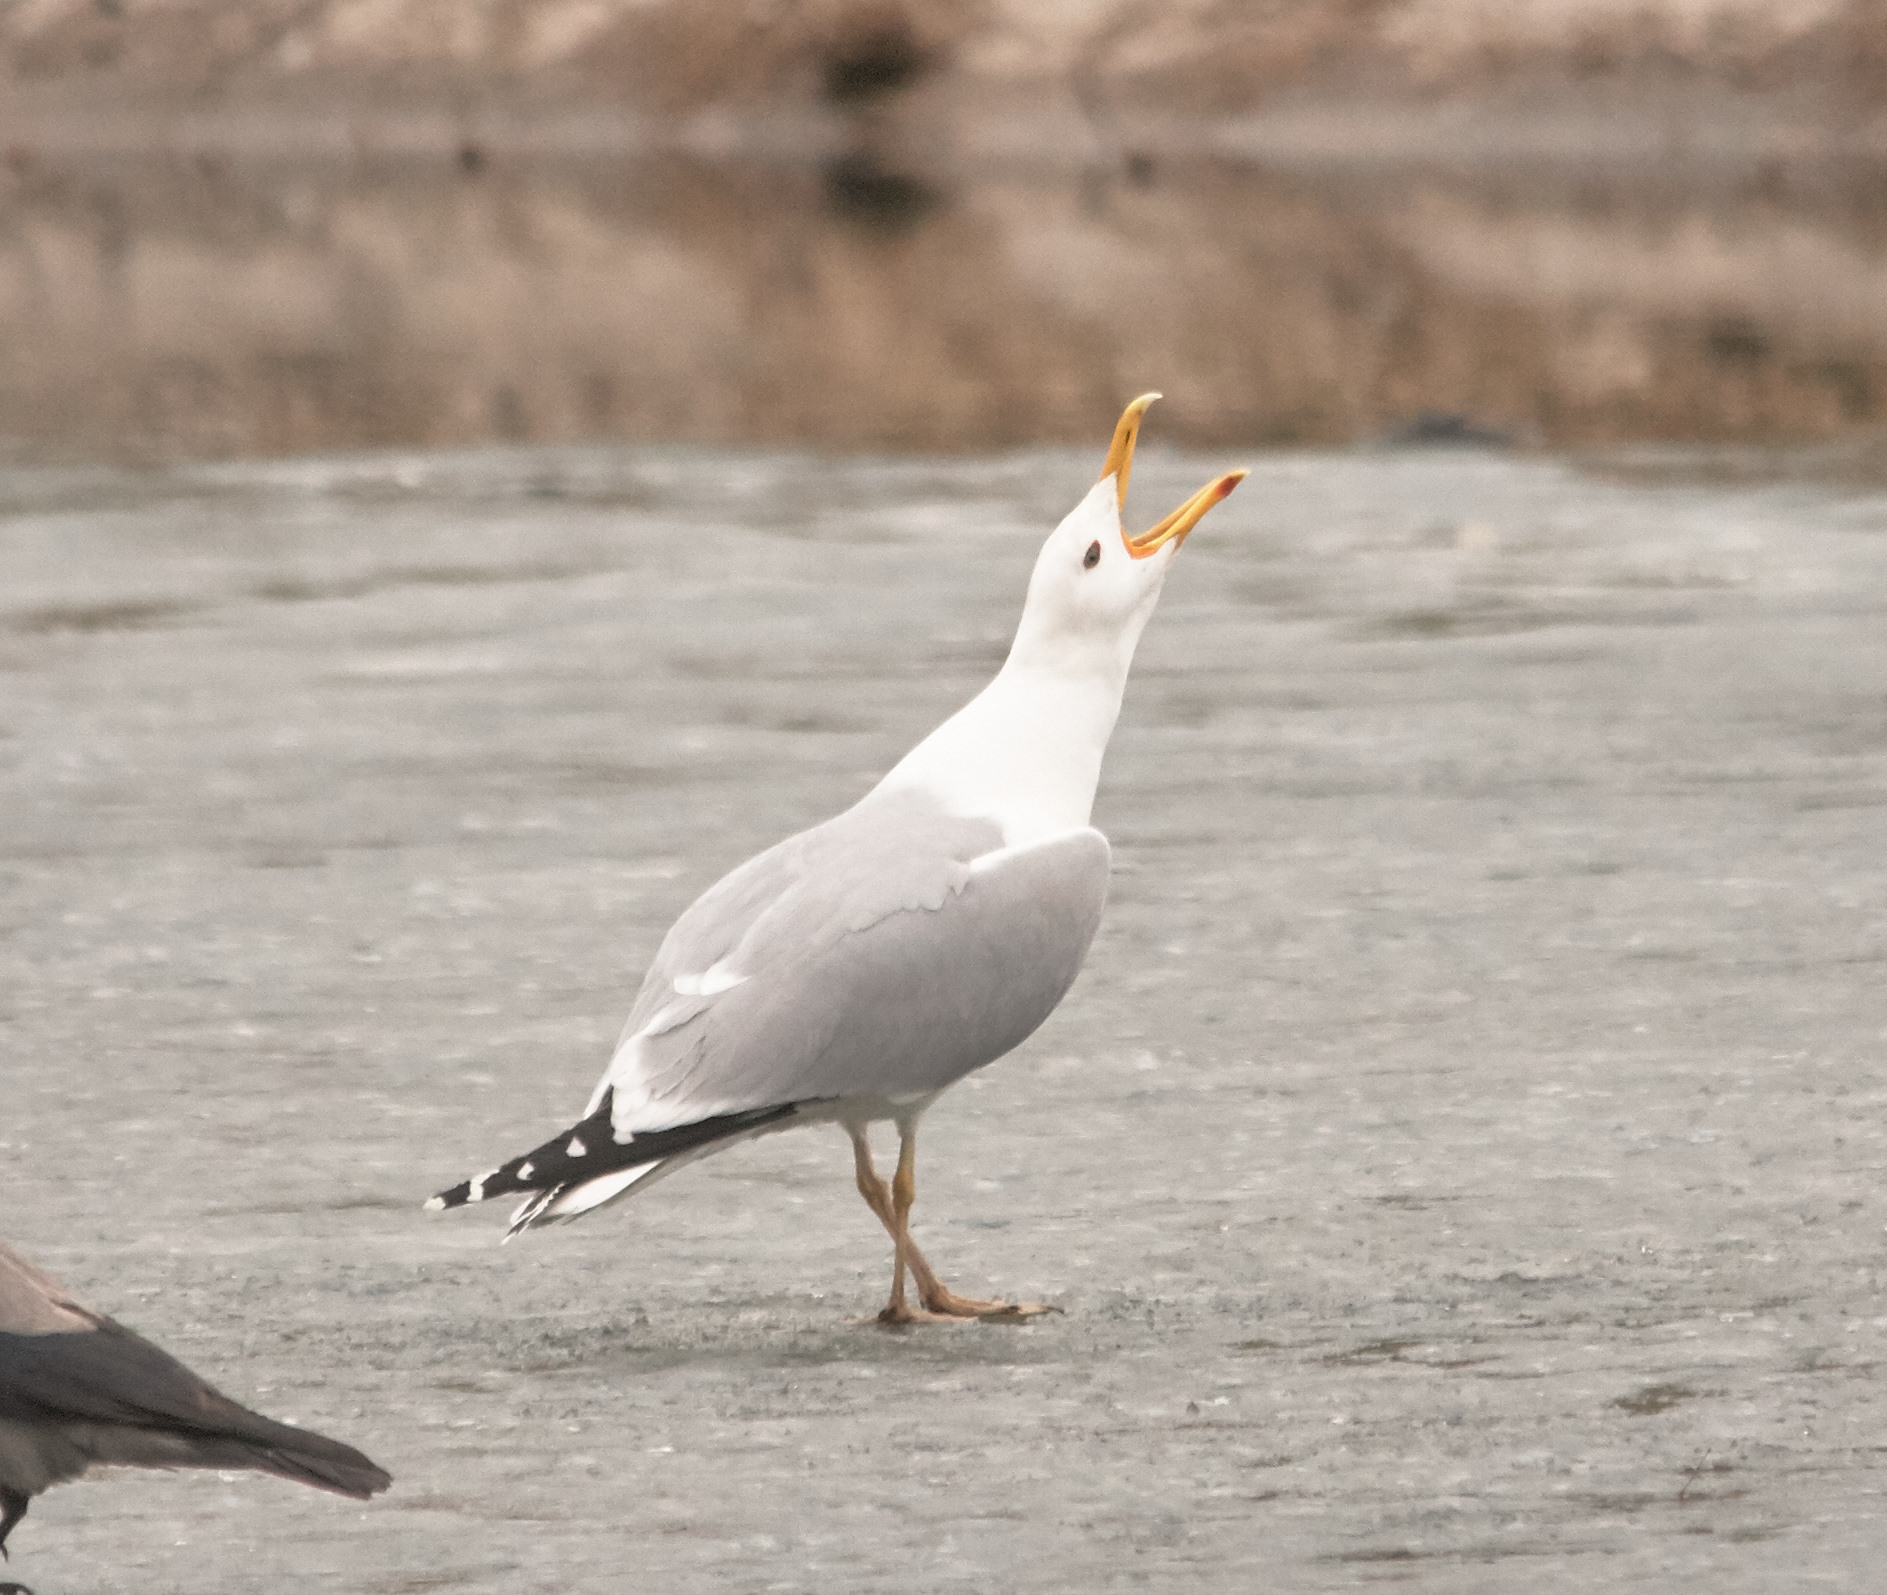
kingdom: Animalia
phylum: Chordata
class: Aves
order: Charadriiformes
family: Laridae
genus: Larus
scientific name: Larus cachinnans
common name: Caspian gull
